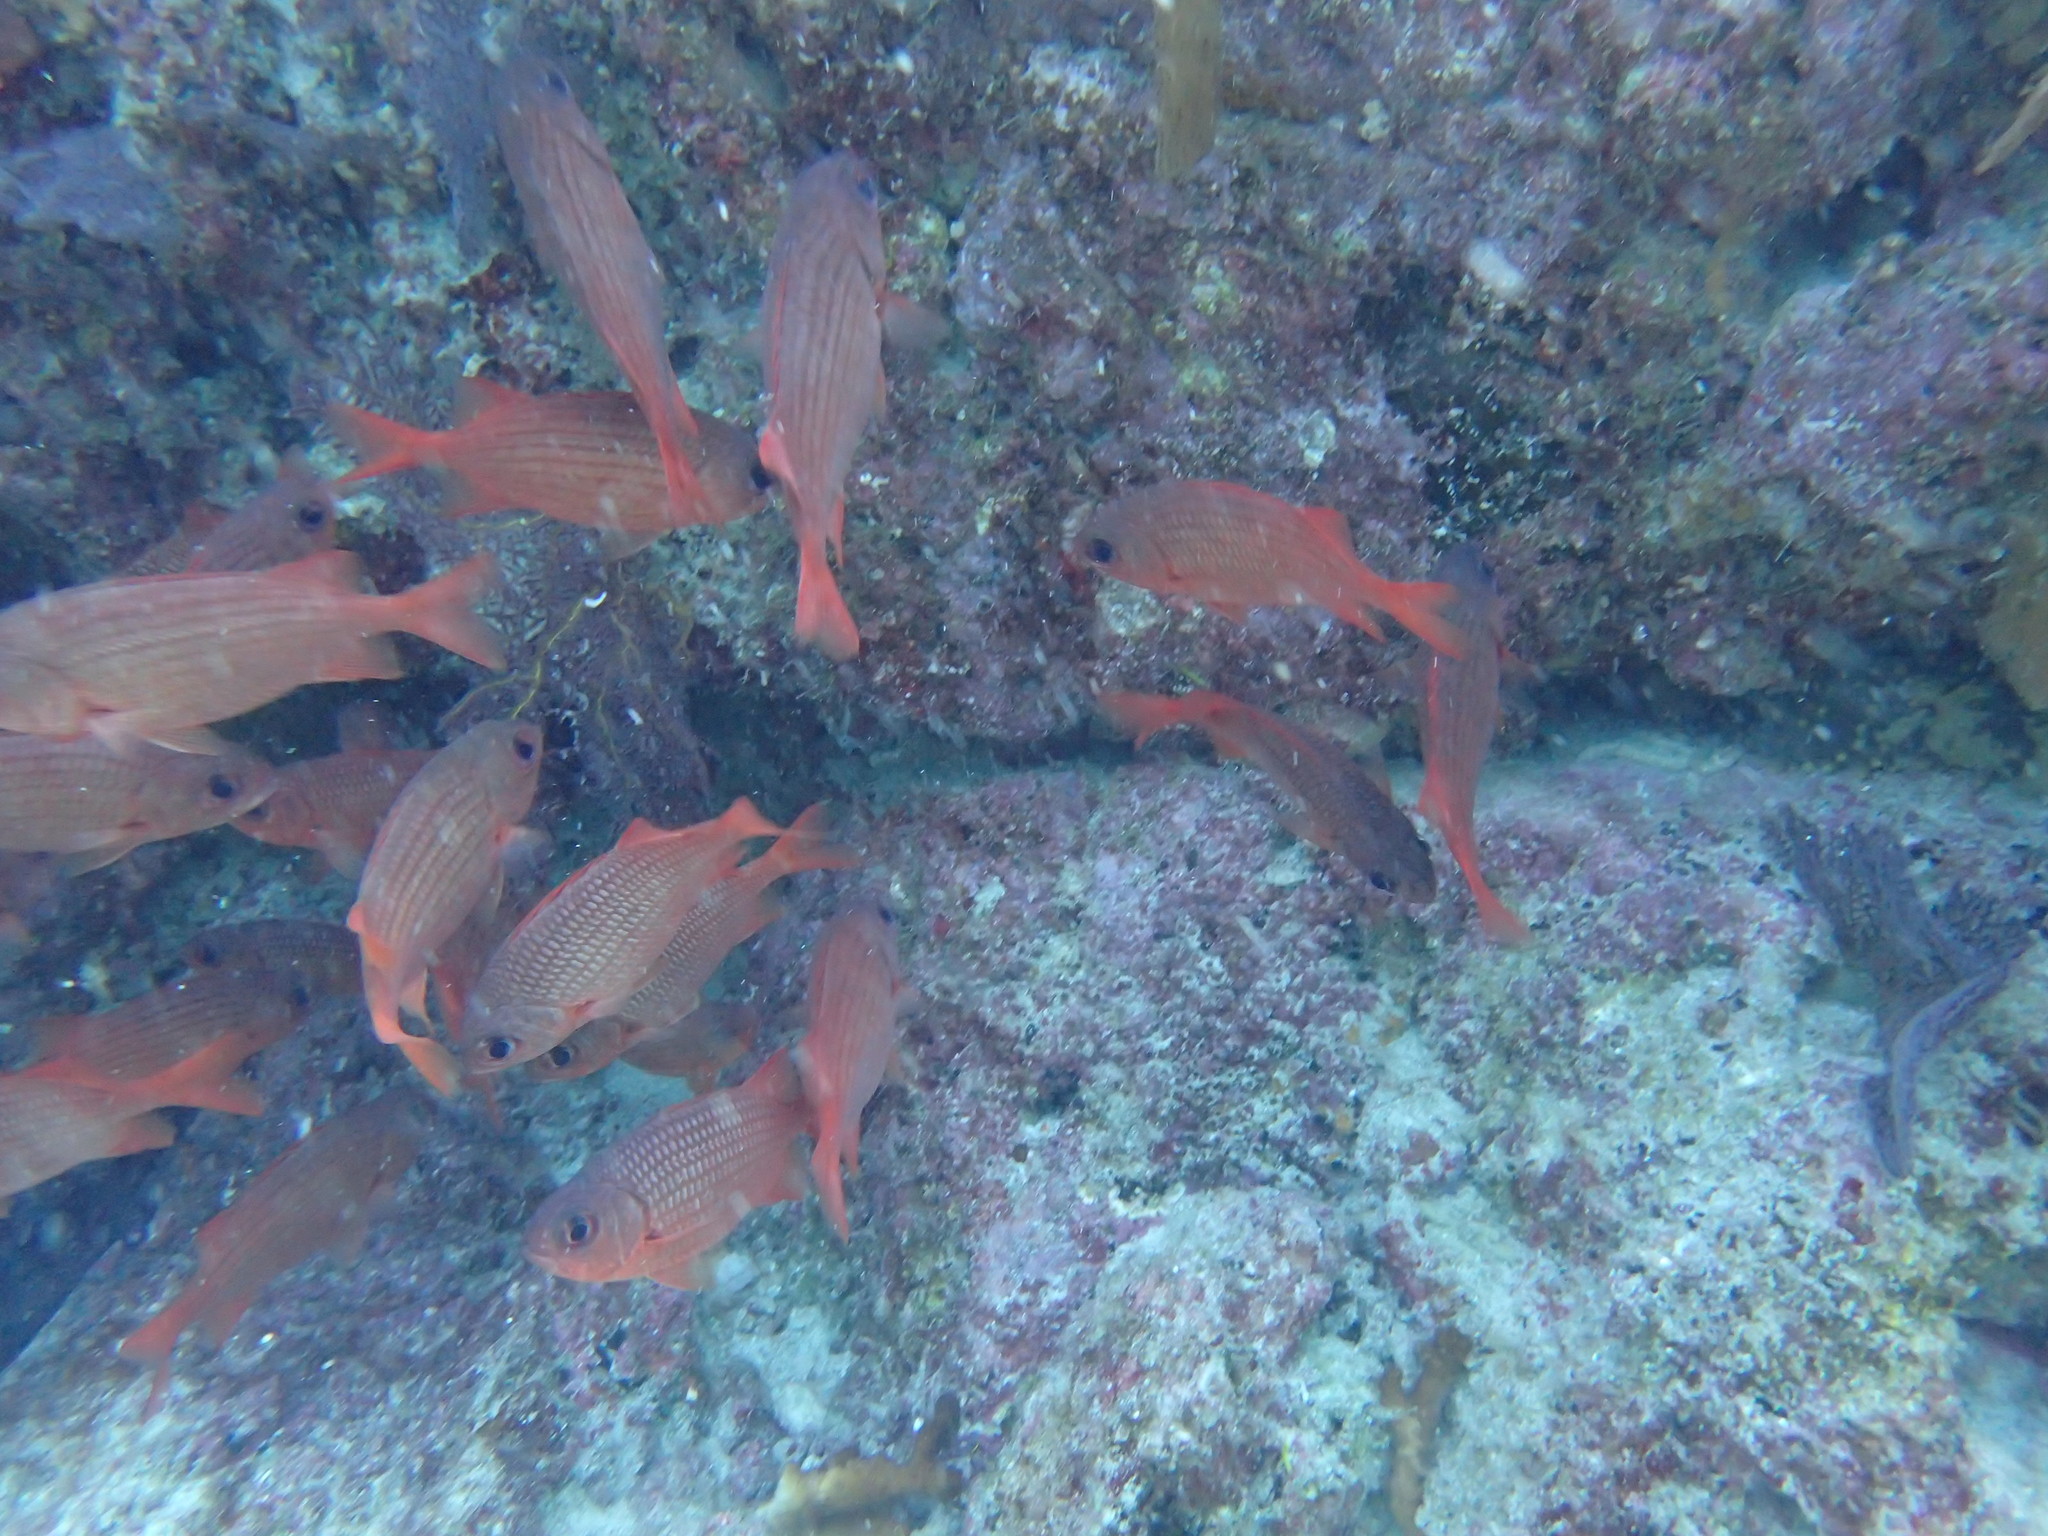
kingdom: Animalia
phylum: Chordata
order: Beryciformes
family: Holocentridae
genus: Myripristis
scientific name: Myripristis leiognathus
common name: Panamic soldierfish
